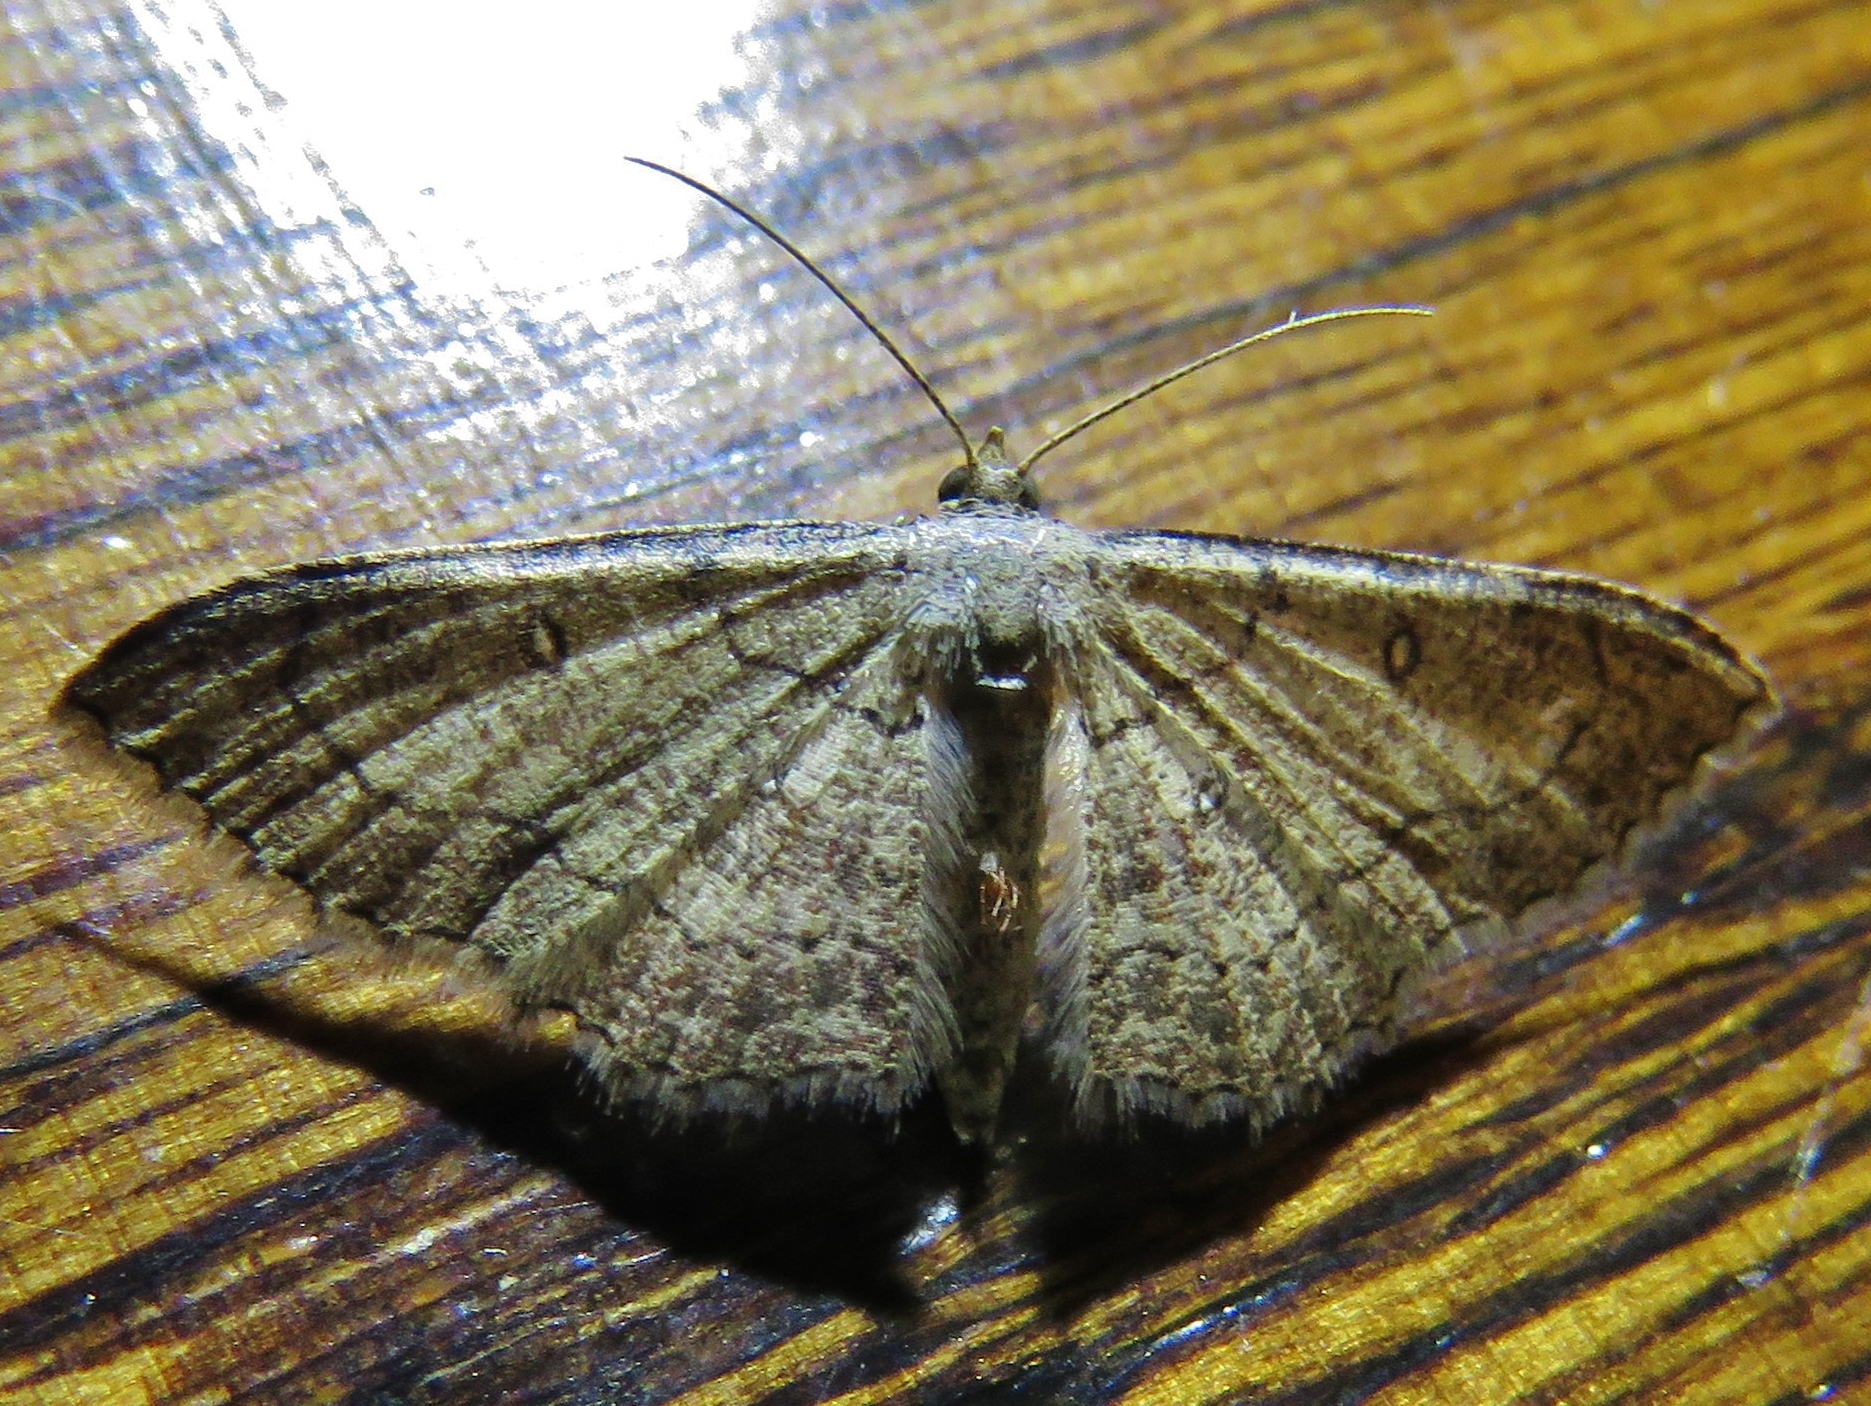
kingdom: Animalia
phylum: Arthropoda
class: Insecta
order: Lepidoptera
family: Geometridae
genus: Cyclophora
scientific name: Cyclophora nanaria
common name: Cankerworm
